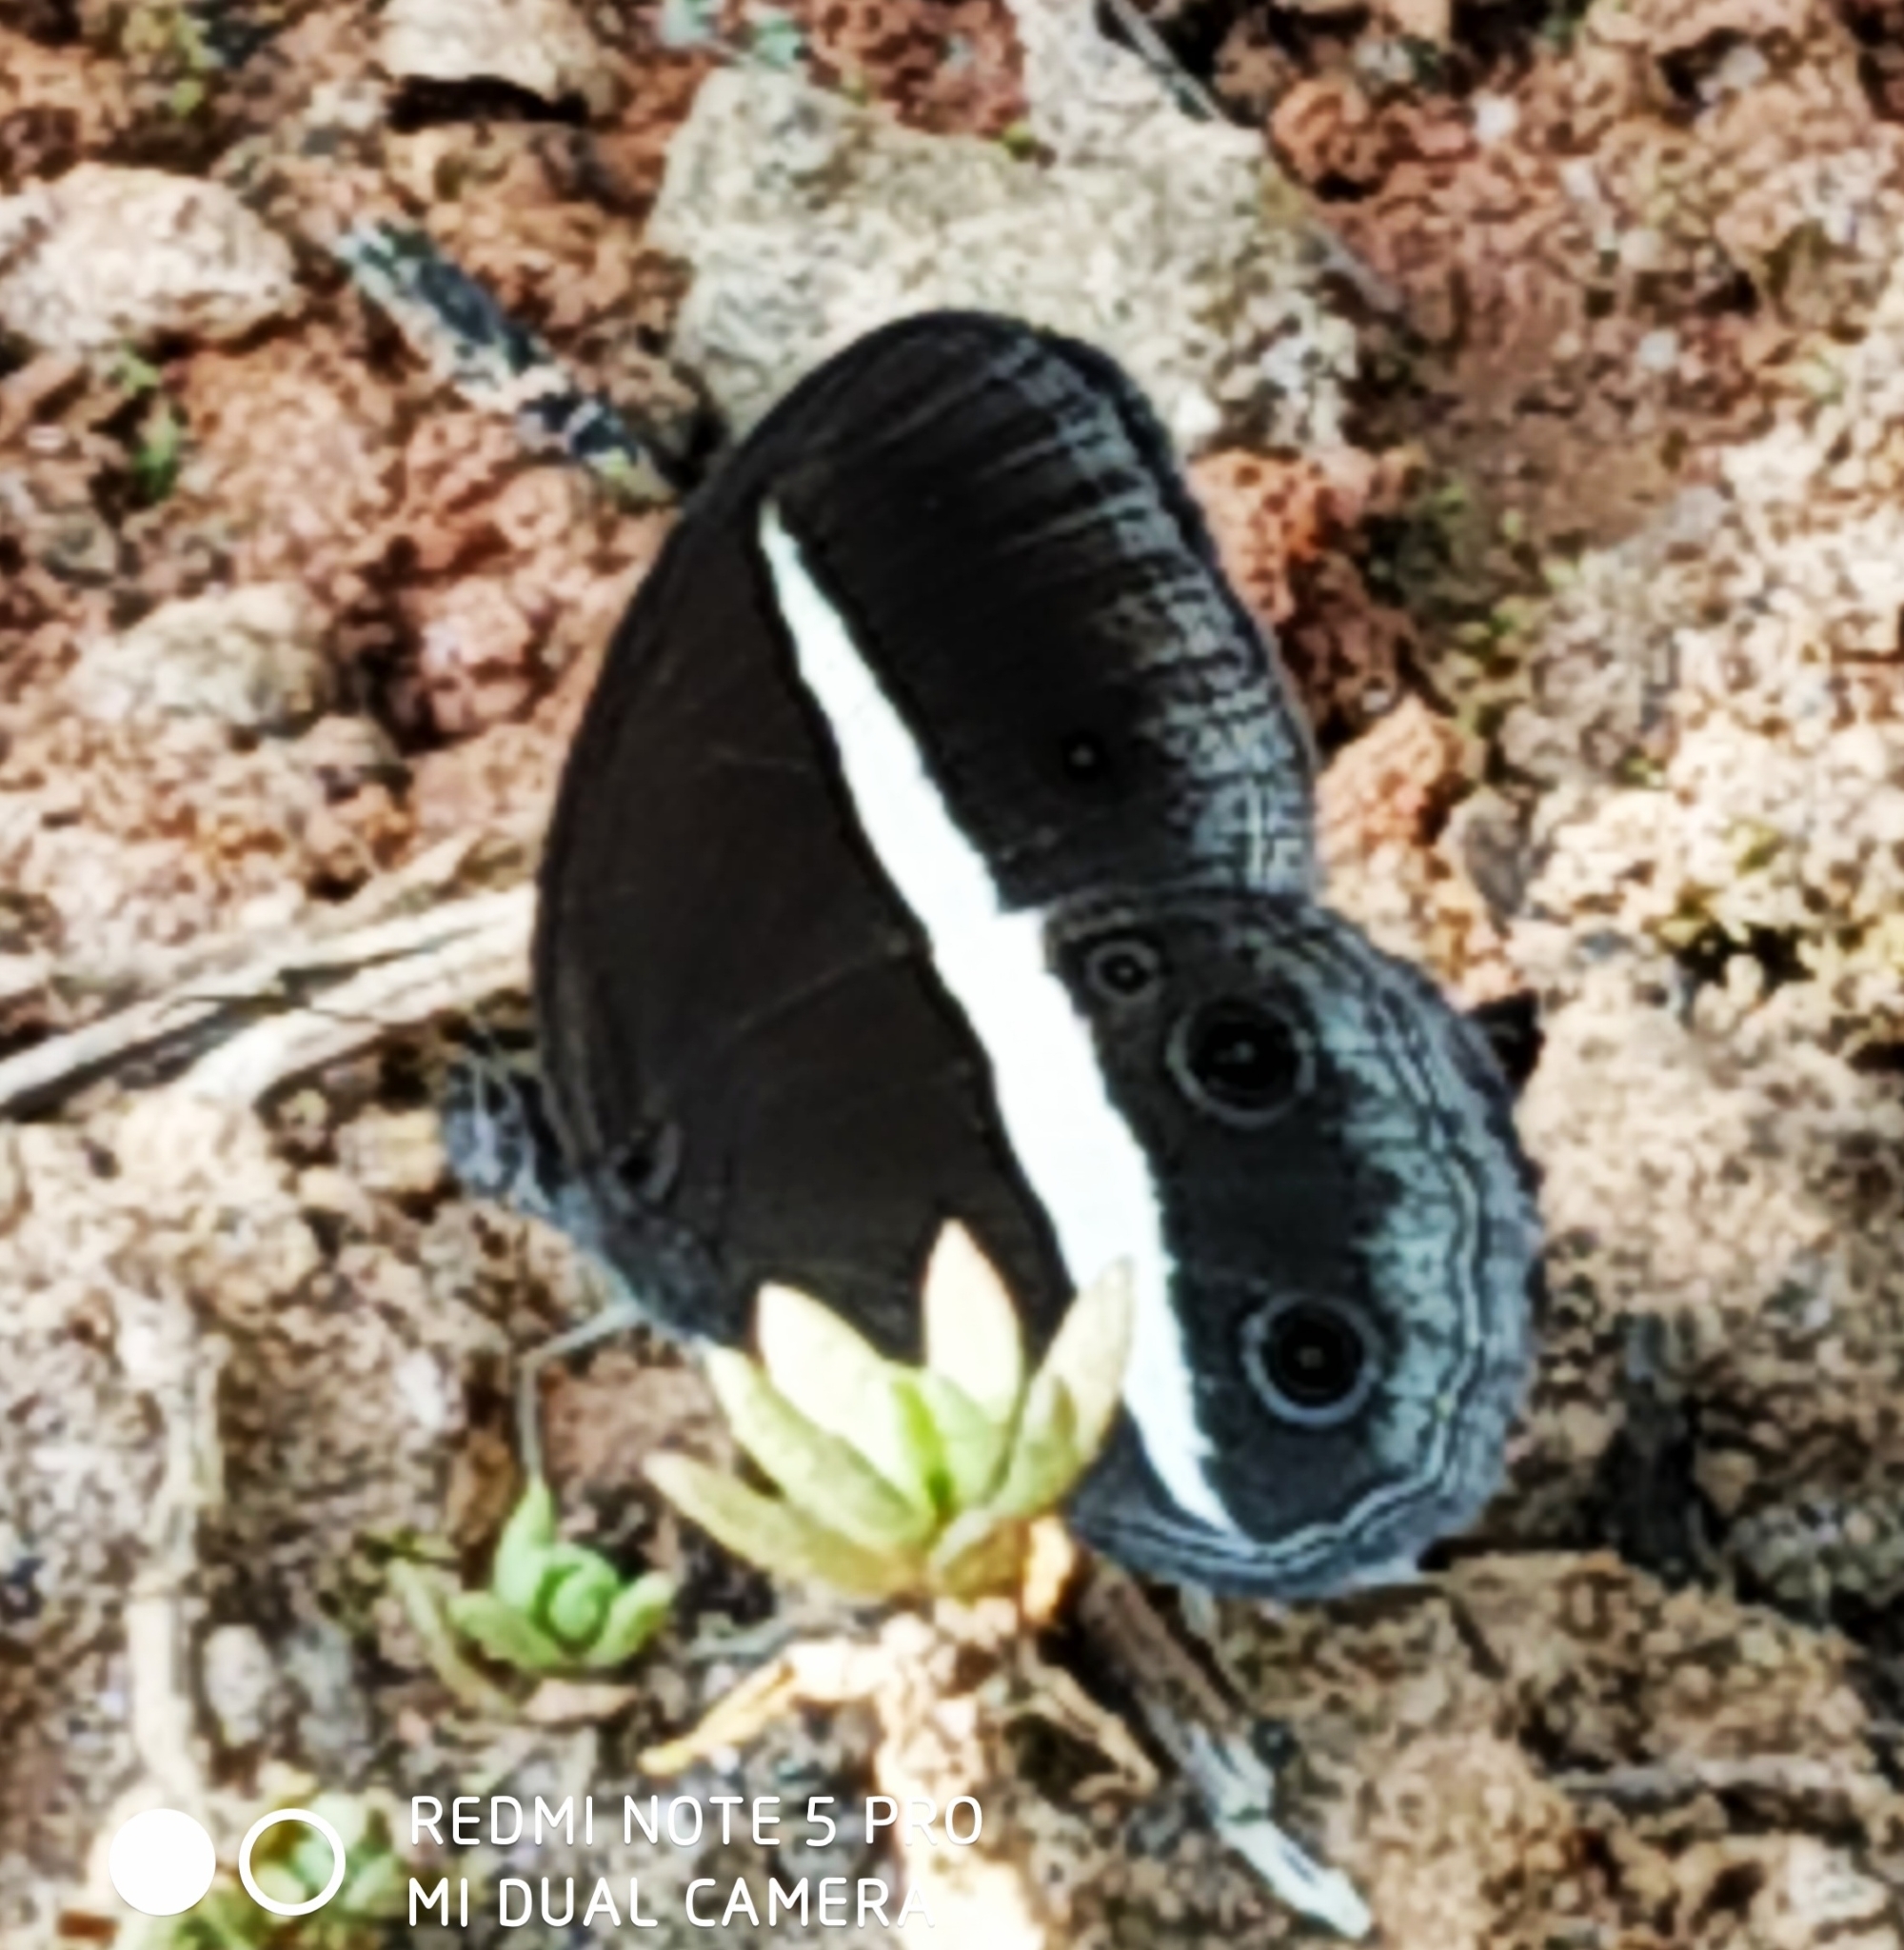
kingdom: Animalia
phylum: Arthropoda
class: Insecta
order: Lepidoptera
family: Nymphalidae
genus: Orsotriaena
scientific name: Orsotriaena medus
